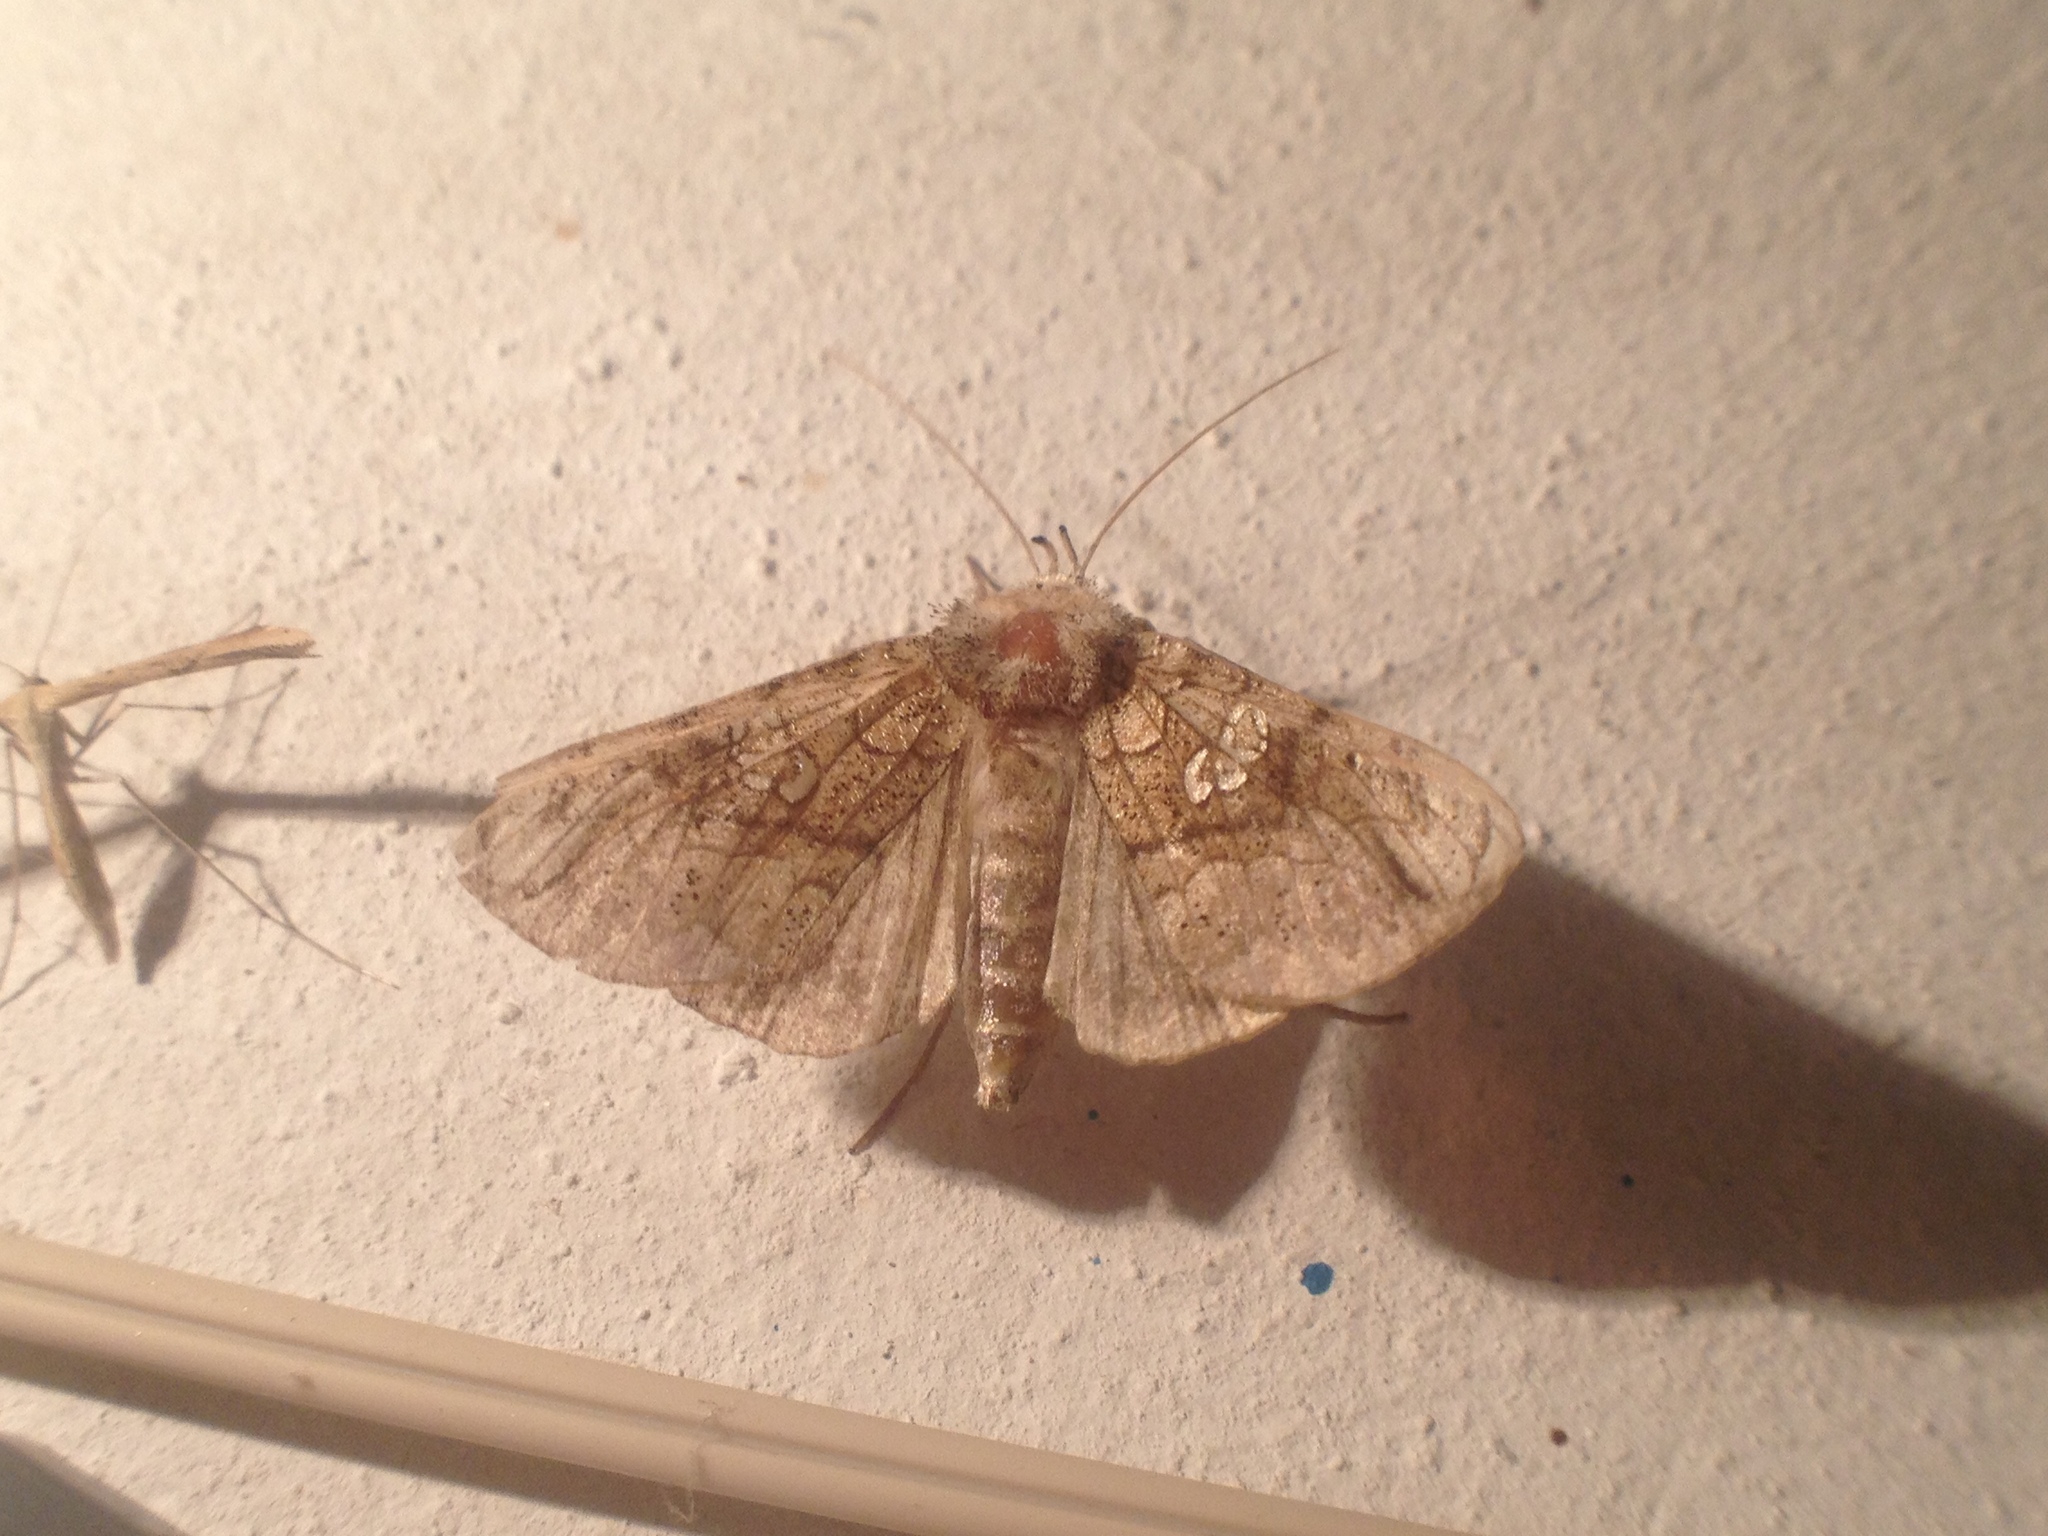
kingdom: Animalia
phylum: Arthropoda
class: Insecta
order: Lepidoptera
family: Noctuidae
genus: Polychrysia
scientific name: Polychrysia moneta
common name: Golden plusia
